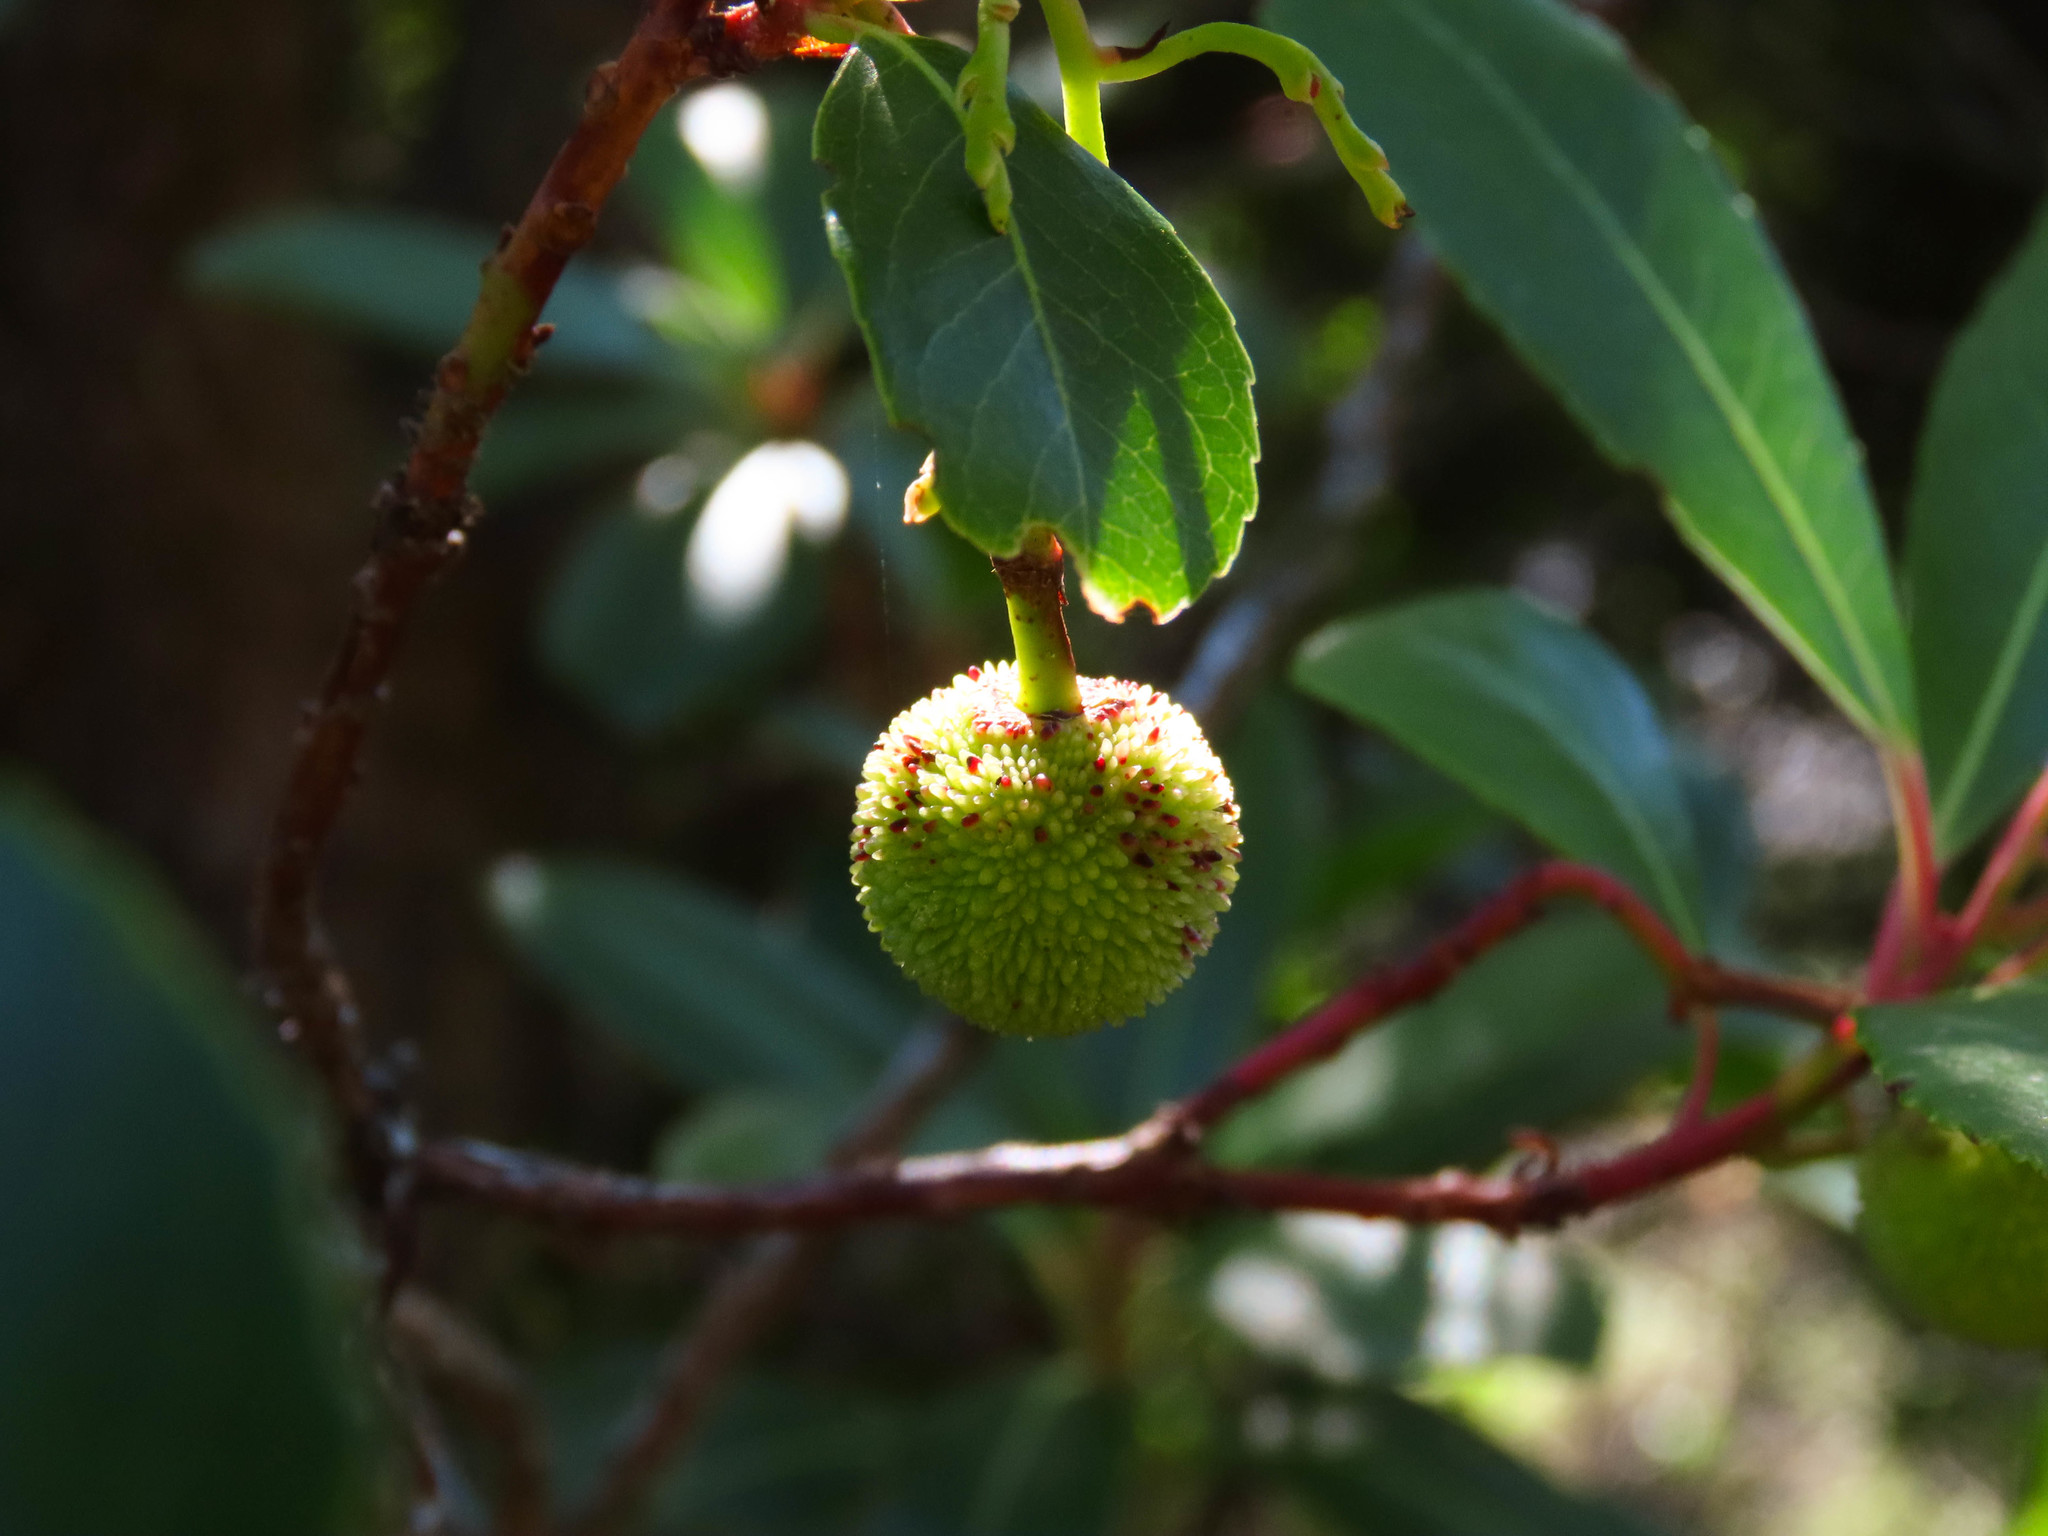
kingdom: Plantae
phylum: Tracheophyta
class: Magnoliopsida
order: Ericales
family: Ericaceae
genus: Arbutus
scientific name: Arbutus unedo
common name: Strawberry-tree
